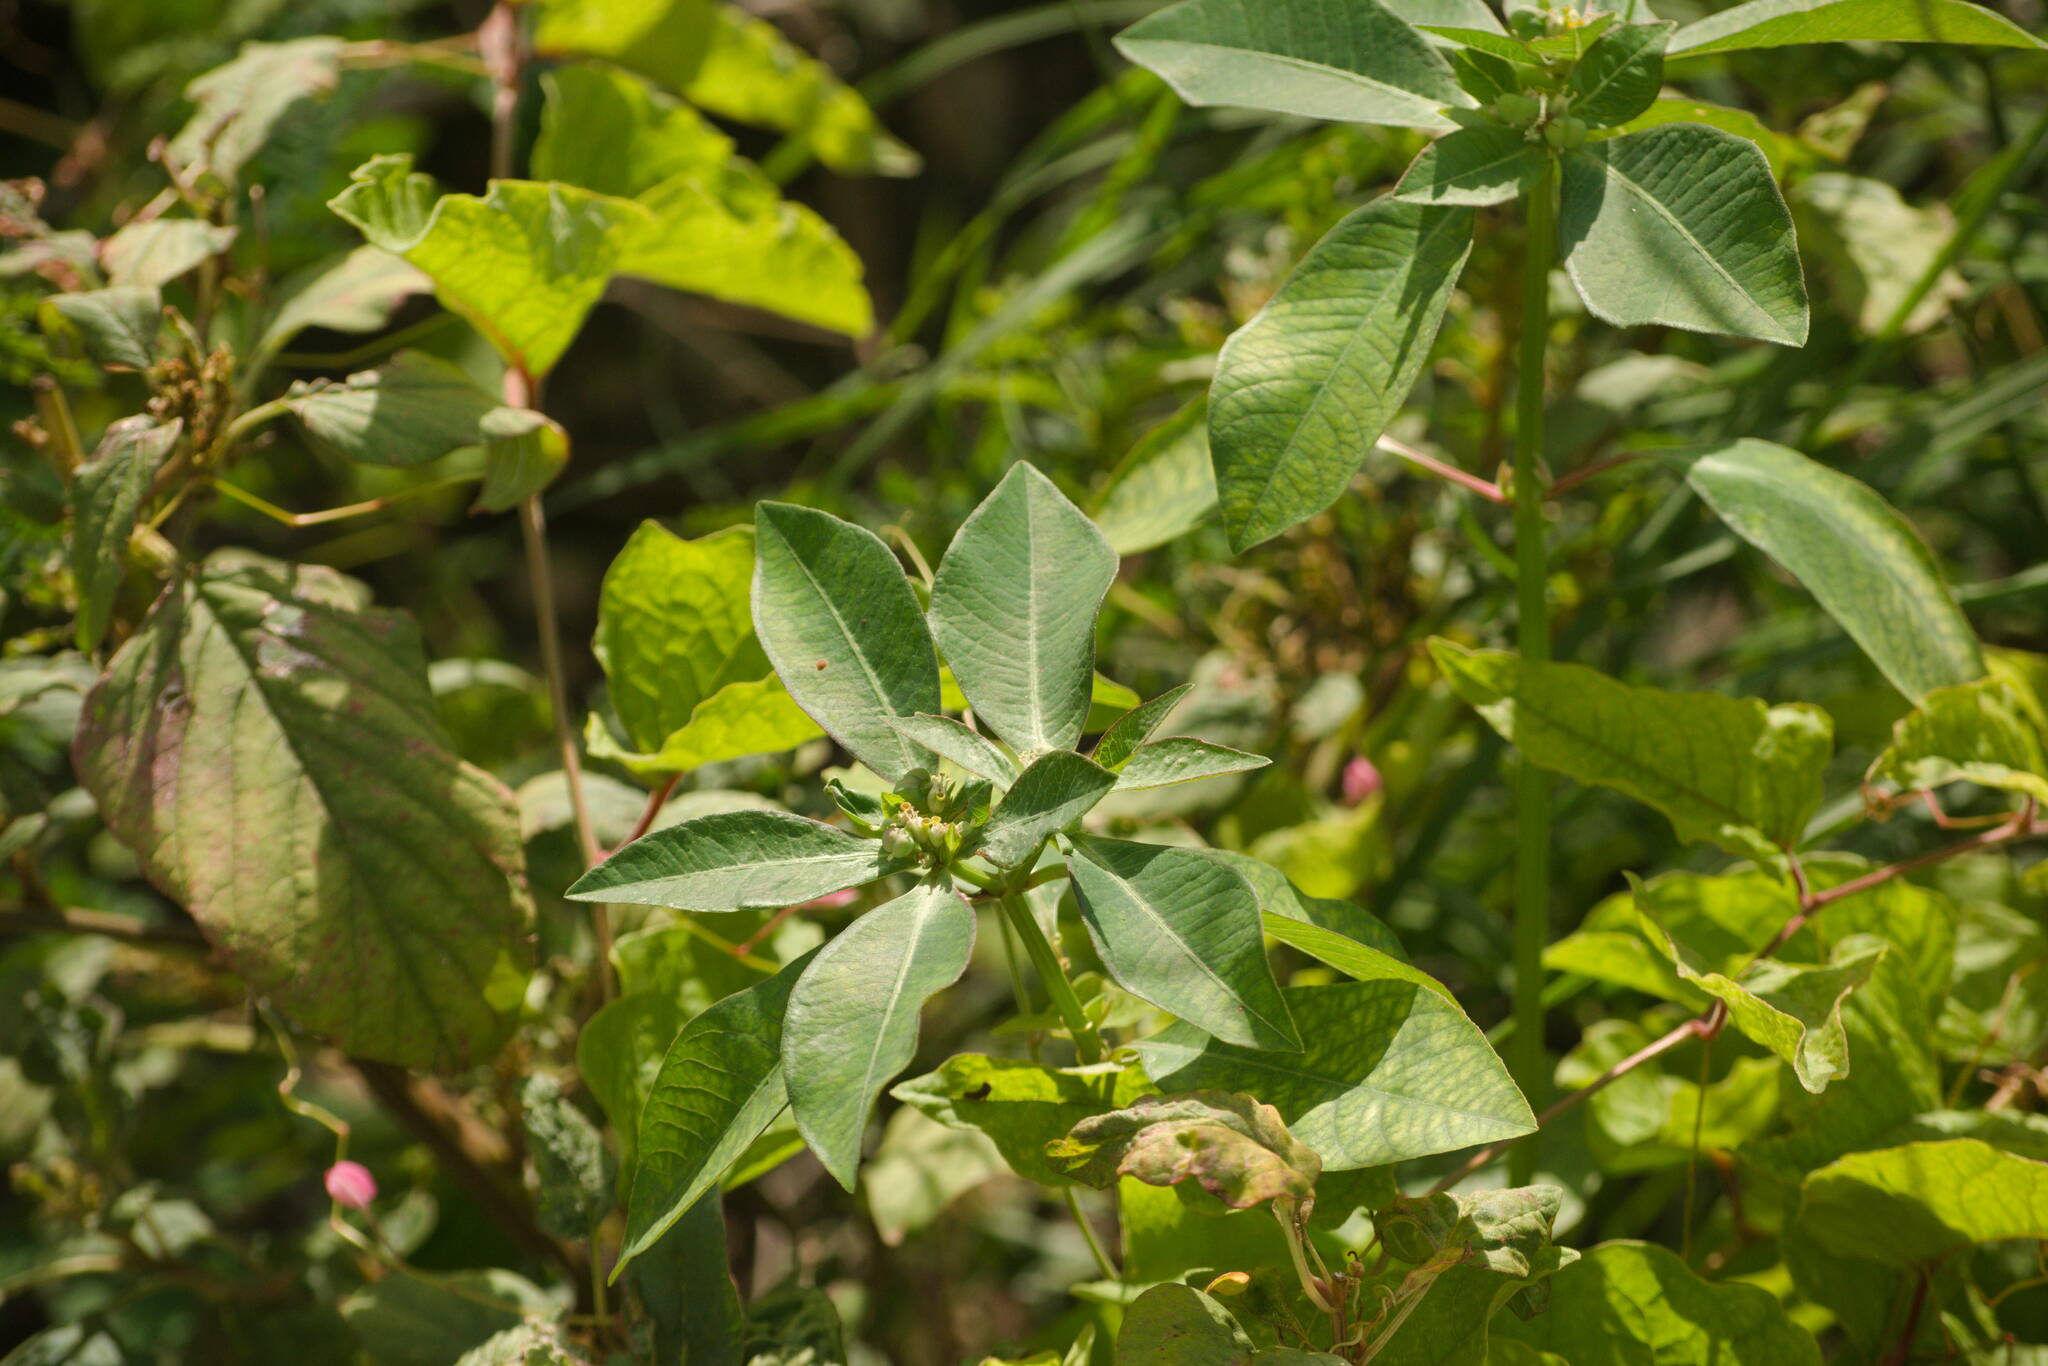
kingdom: Plantae
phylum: Tracheophyta
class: Magnoliopsida
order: Malpighiales
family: Euphorbiaceae
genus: Euphorbia
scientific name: Euphorbia heterophylla
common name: Mexican fireplant
